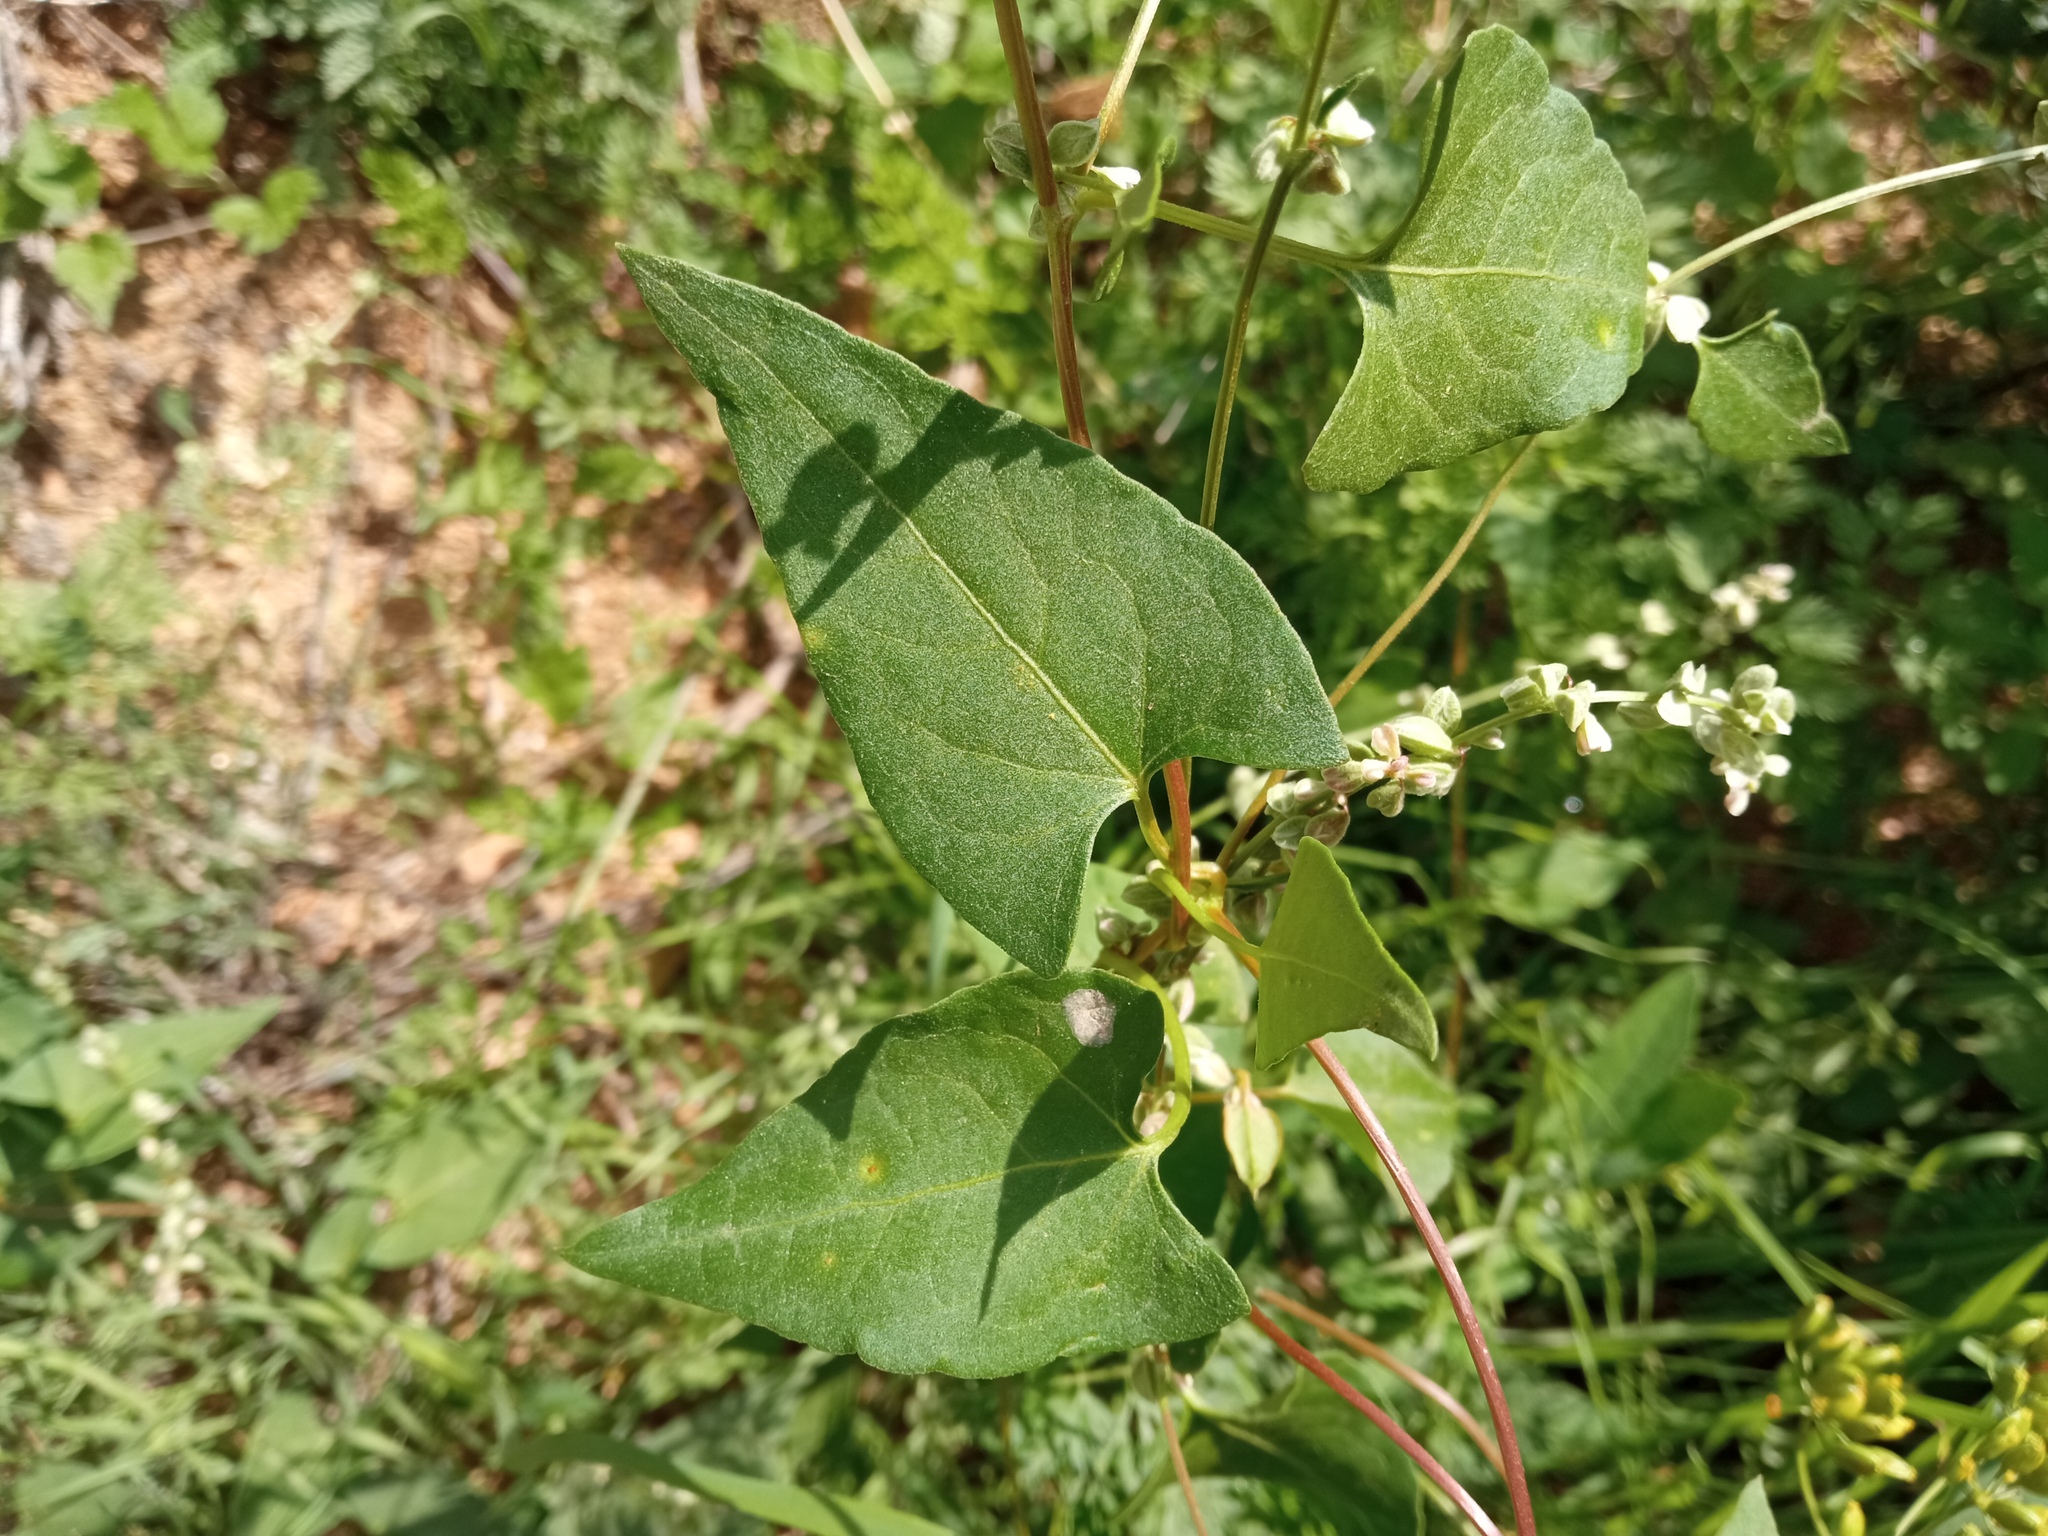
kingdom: Plantae
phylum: Tracheophyta
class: Magnoliopsida
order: Caryophyllales
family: Polygonaceae
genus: Fallopia
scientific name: Fallopia convolvulus
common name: Black bindweed
